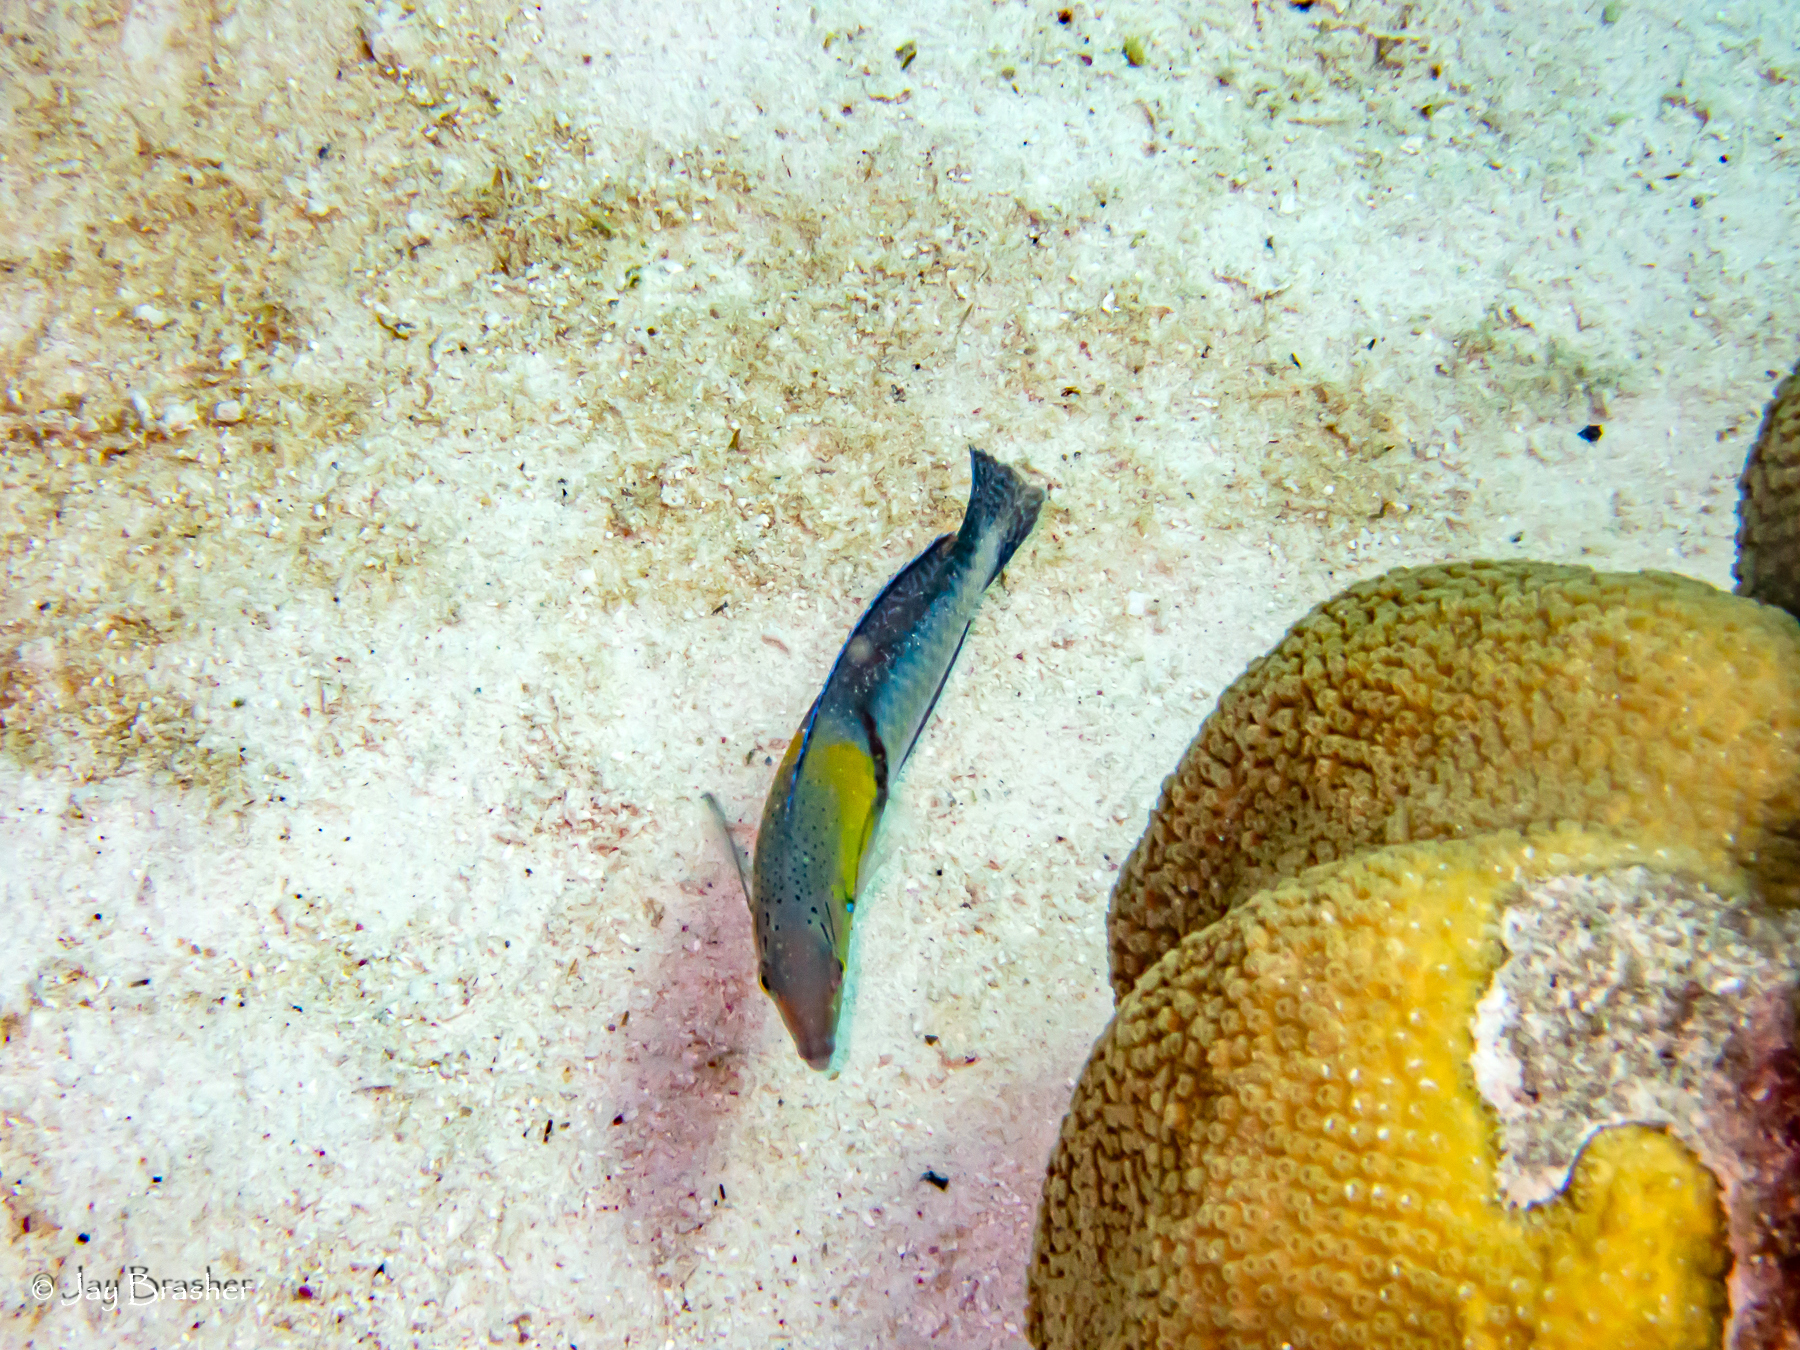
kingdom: Animalia
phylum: Chordata
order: Perciformes
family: Labridae
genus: Halichoeres
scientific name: Halichoeres garnoti
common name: Yellowhead wrasse
